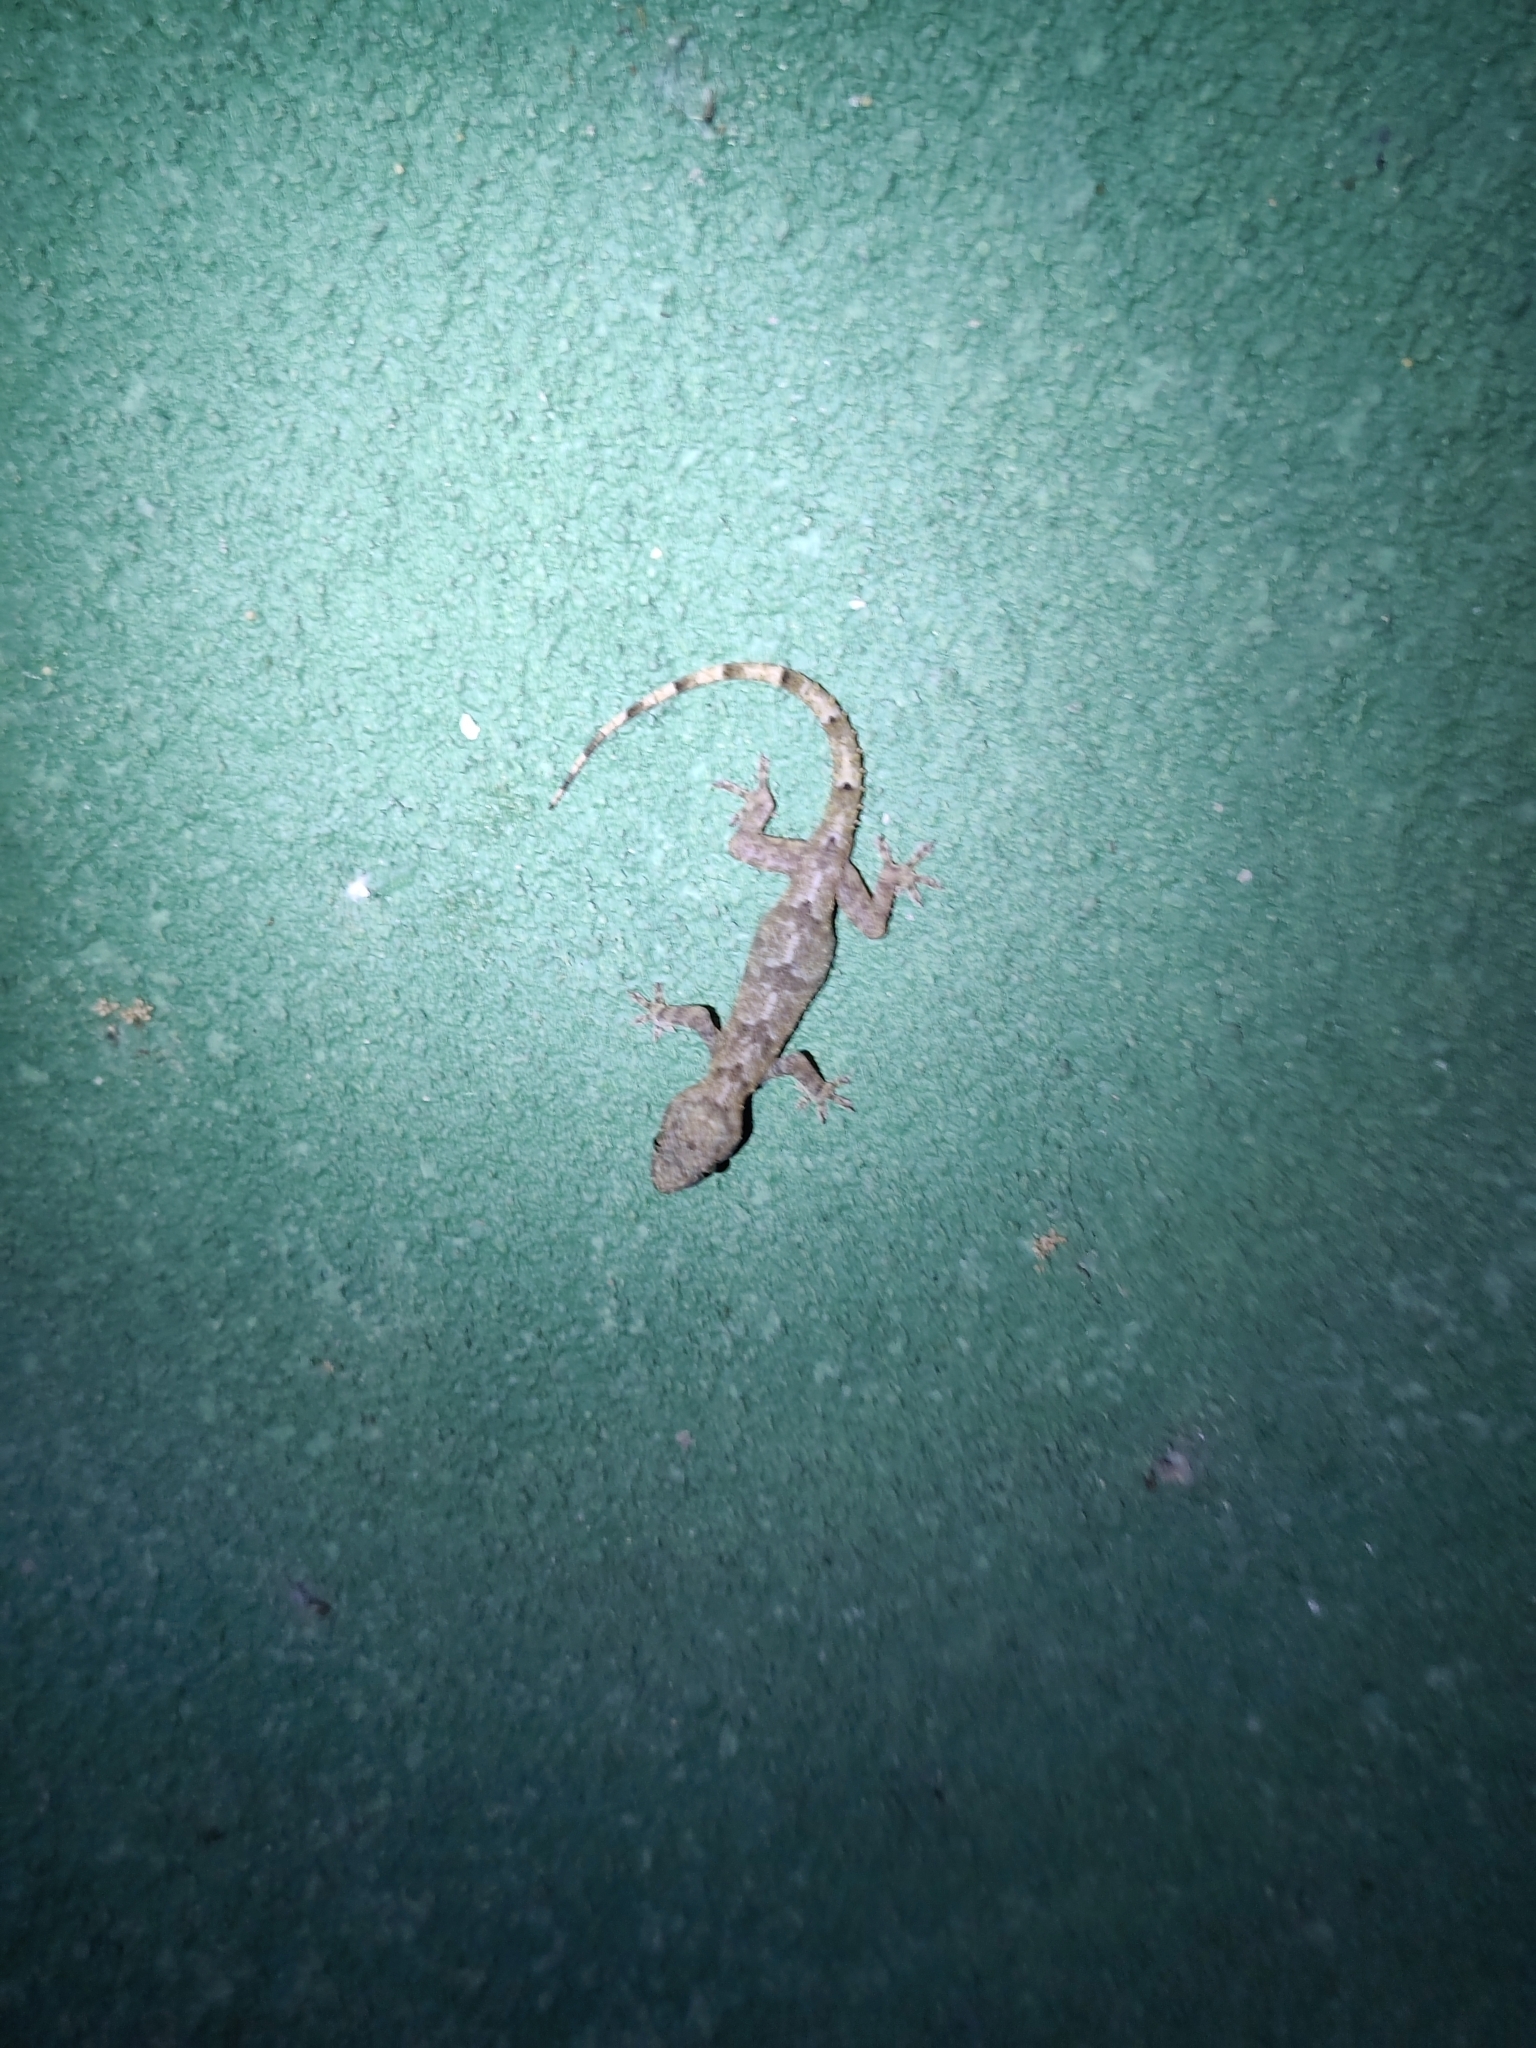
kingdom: Animalia
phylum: Chordata
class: Squamata
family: Gekkonidae
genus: Hemidactylus
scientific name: Hemidactylus mabouia
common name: House gecko
